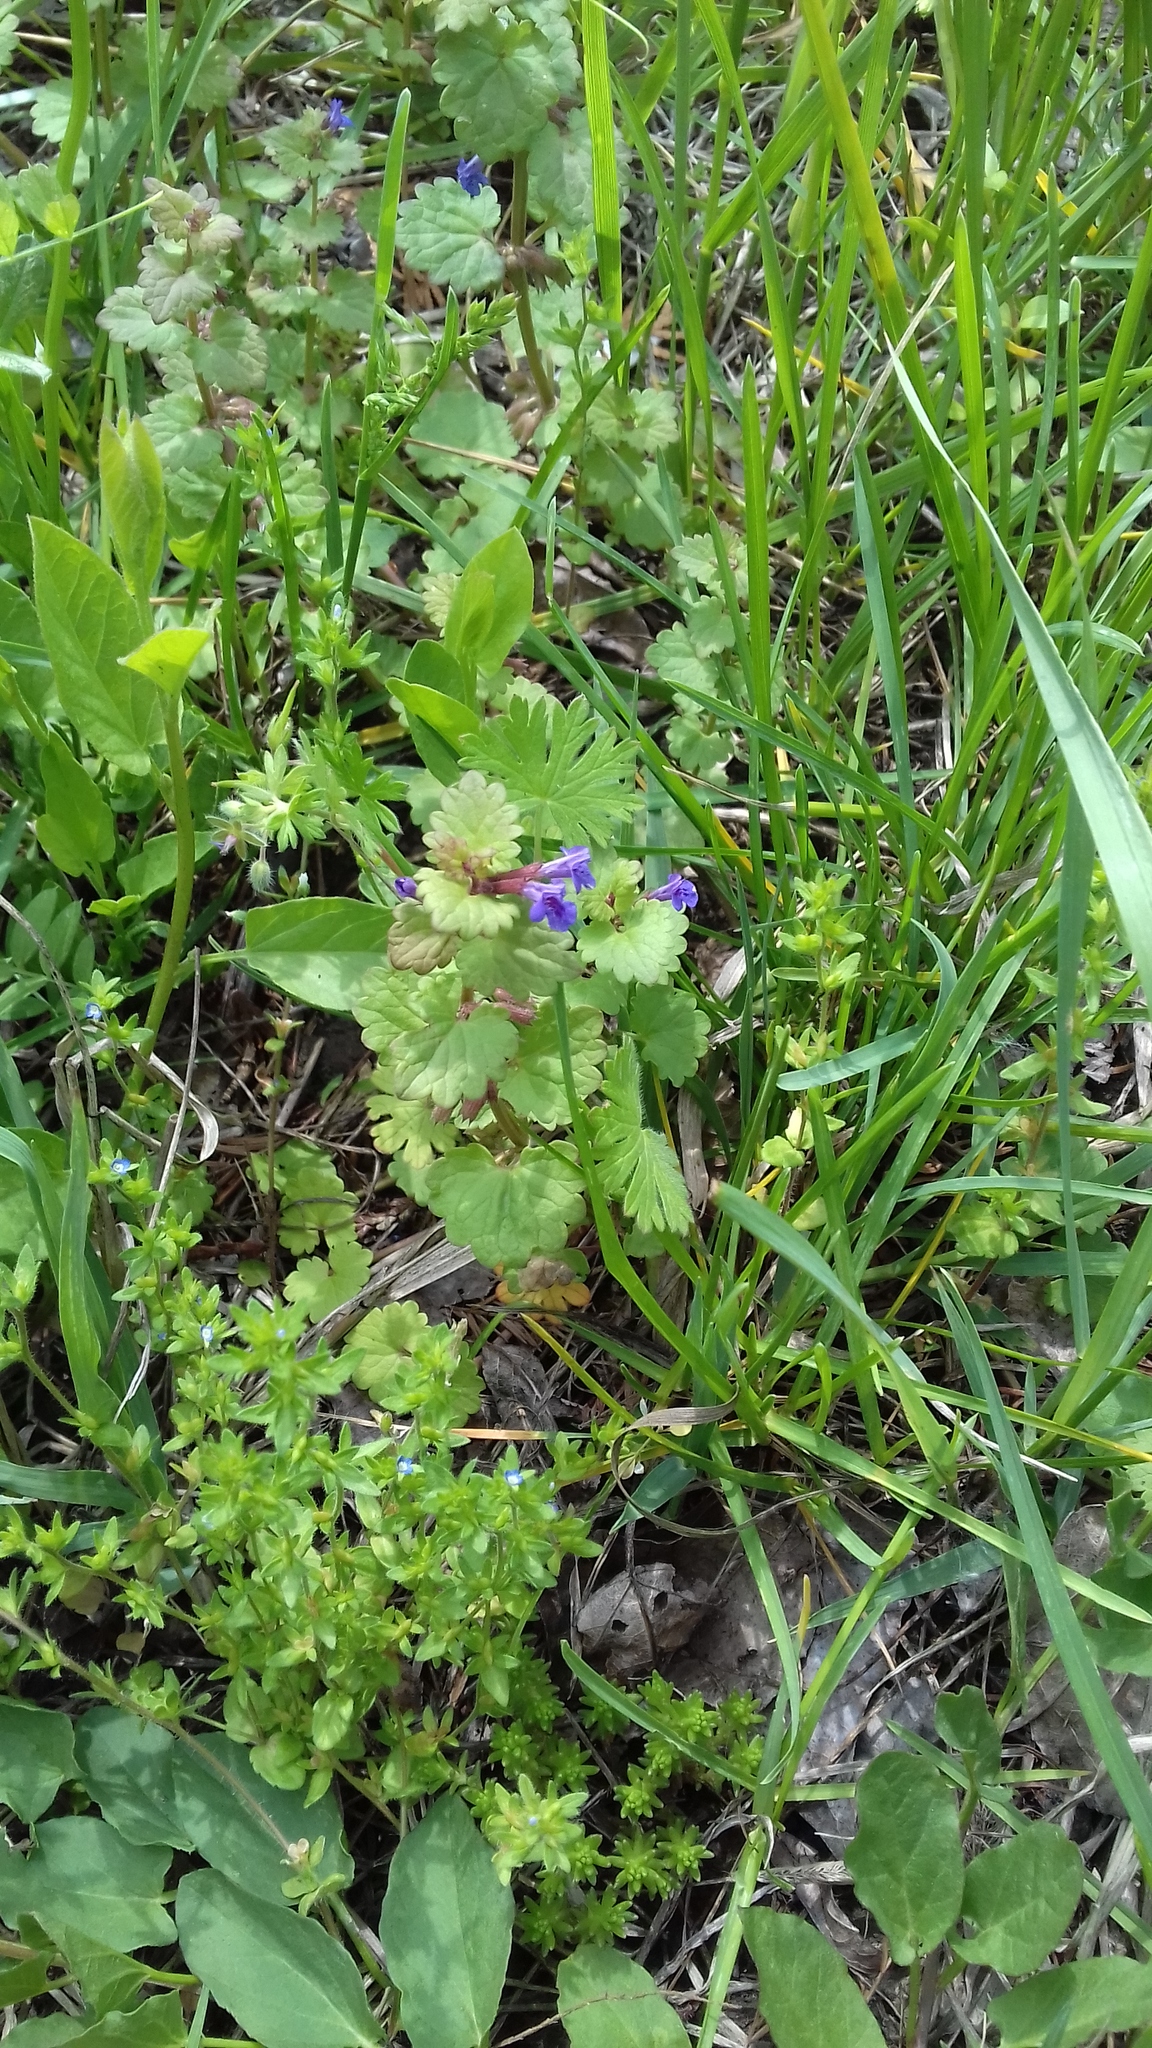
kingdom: Plantae
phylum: Tracheophyta
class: Magnoliopsida
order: Lamiales
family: Lamiaceae
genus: Glechoma
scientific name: Glechoma hederacea
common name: Ground ivy
